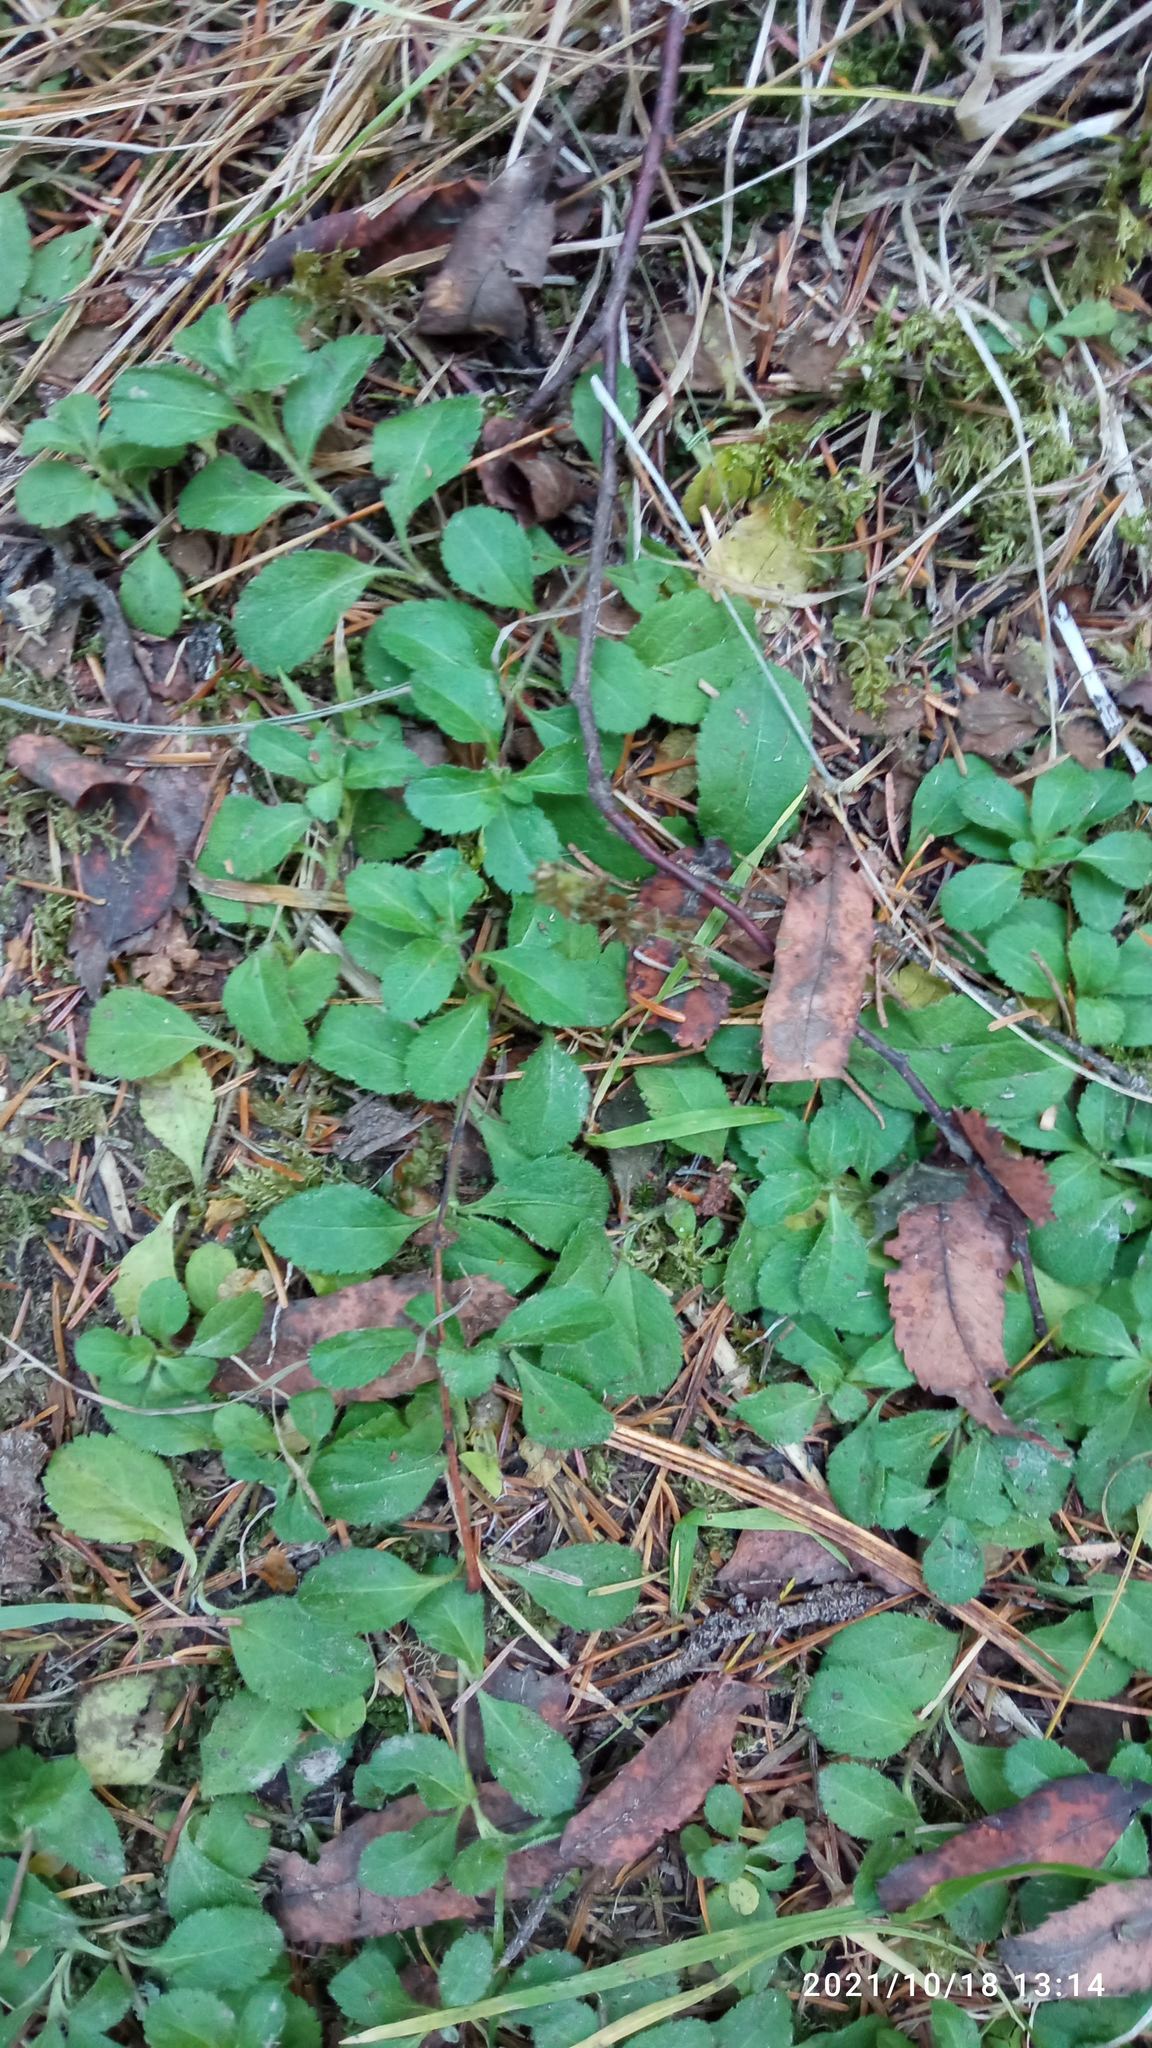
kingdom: Plantae
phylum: Tracheophyta
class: Magnoliopsida
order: Lamiales
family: Plantaginaceae
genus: Veronica
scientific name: Veronica officinalis
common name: Common speedwell
